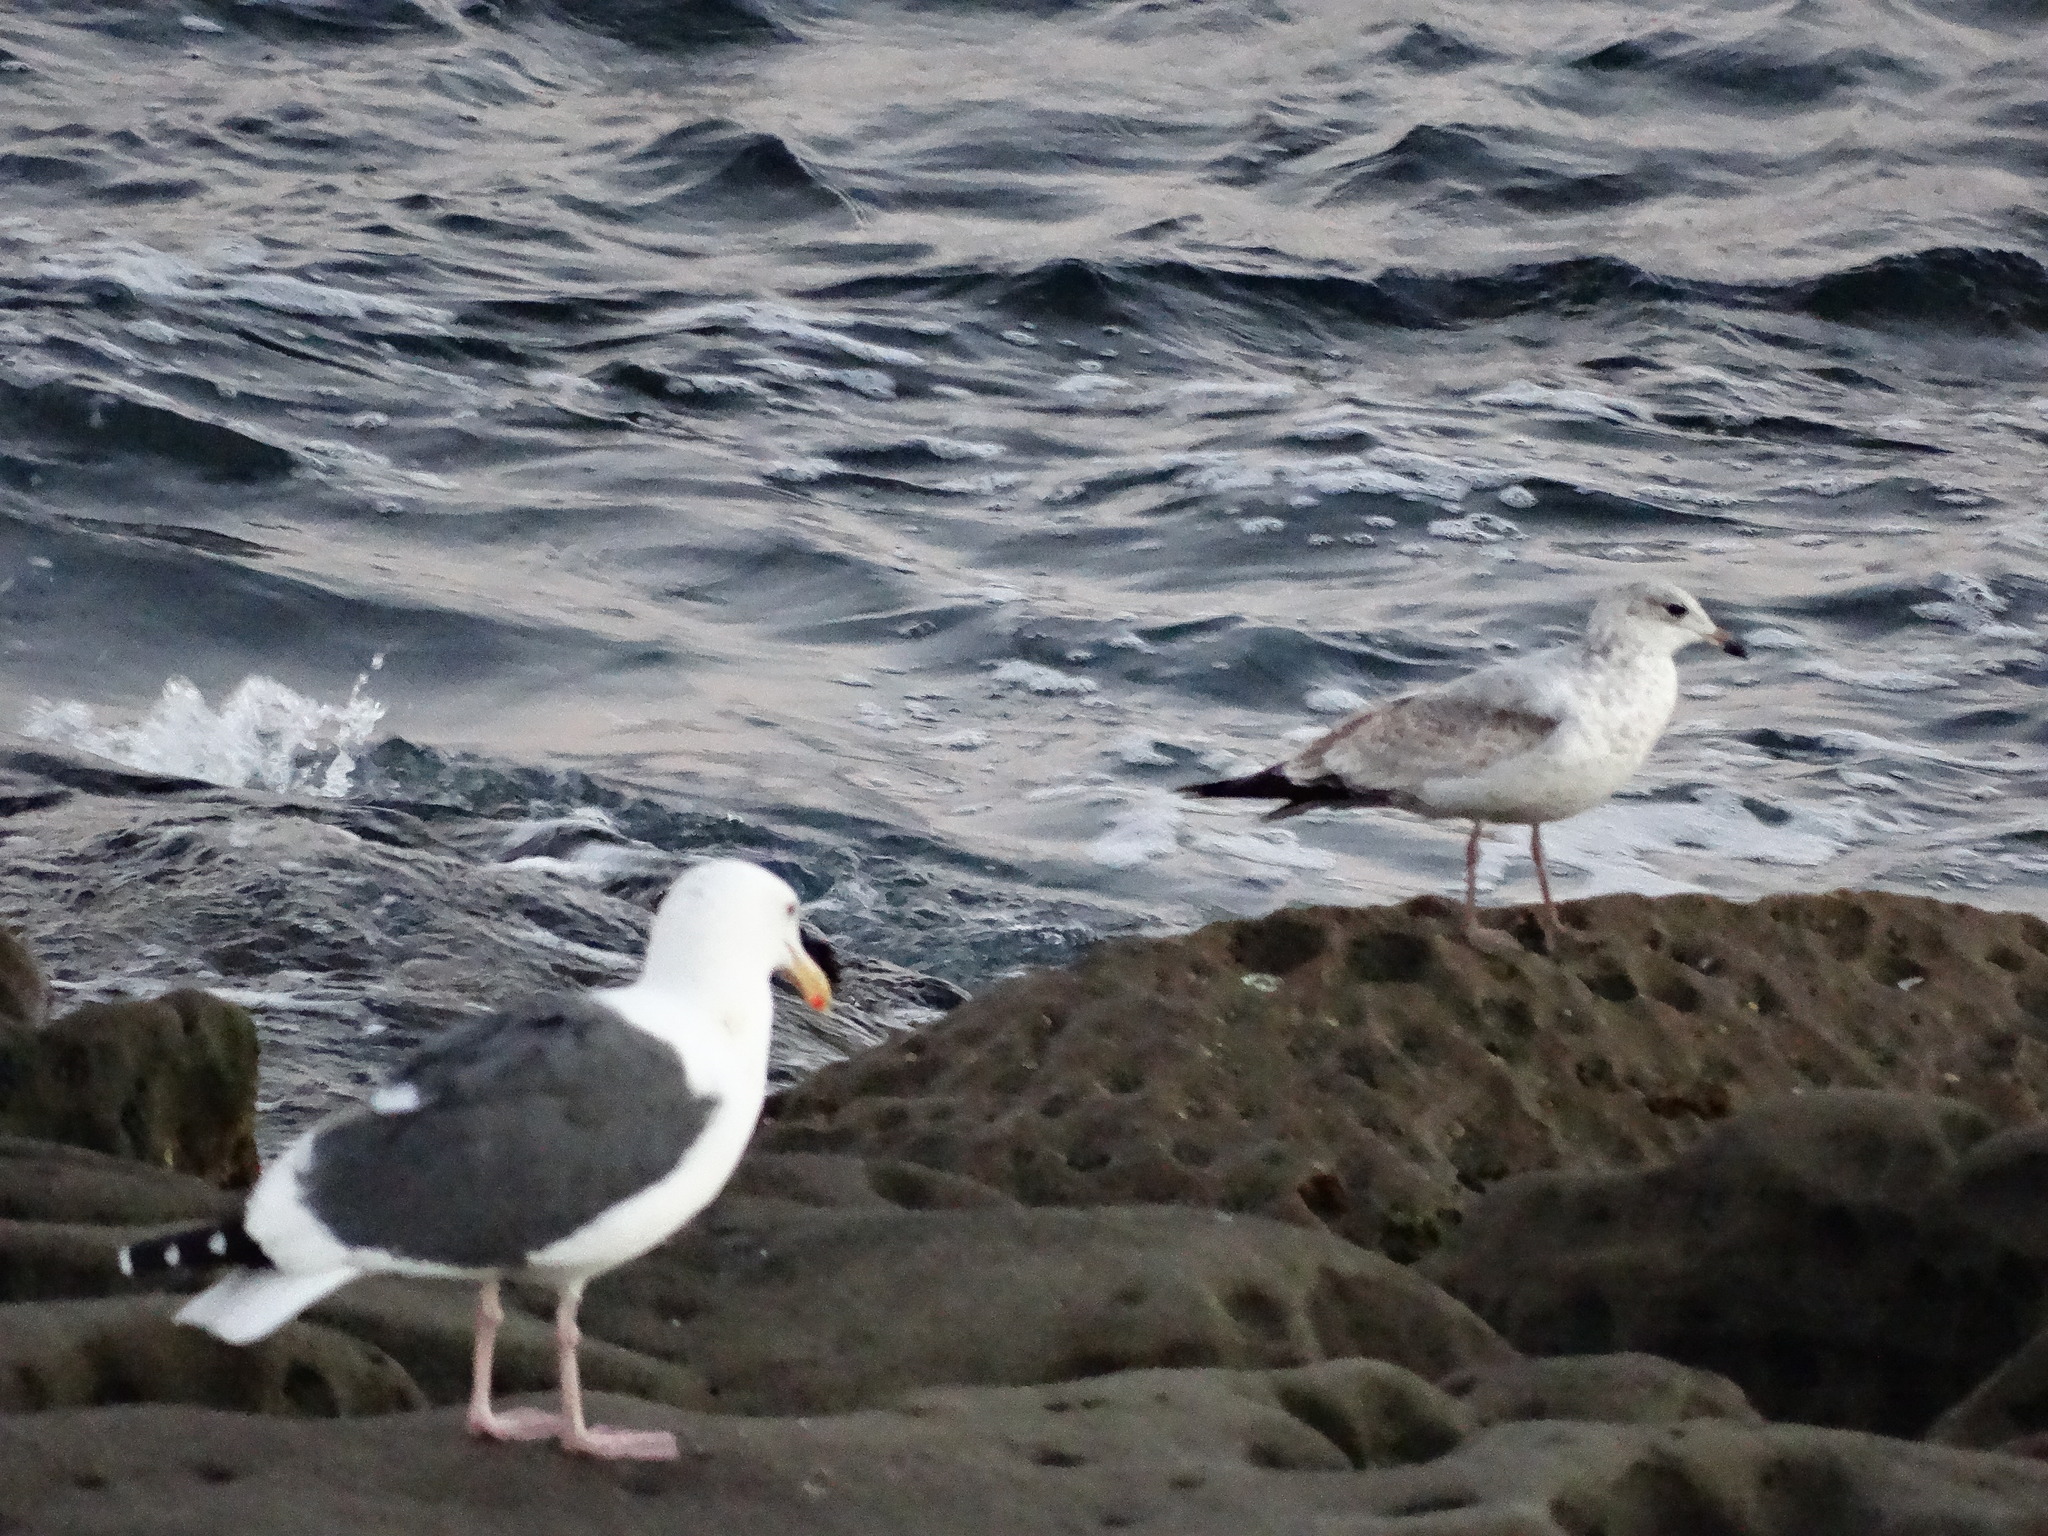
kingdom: Animalia
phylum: Chordata
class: Aves
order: Charadriiformes
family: Laridae
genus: Larus
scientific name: Larus delawarensis
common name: Ring-billed gull
